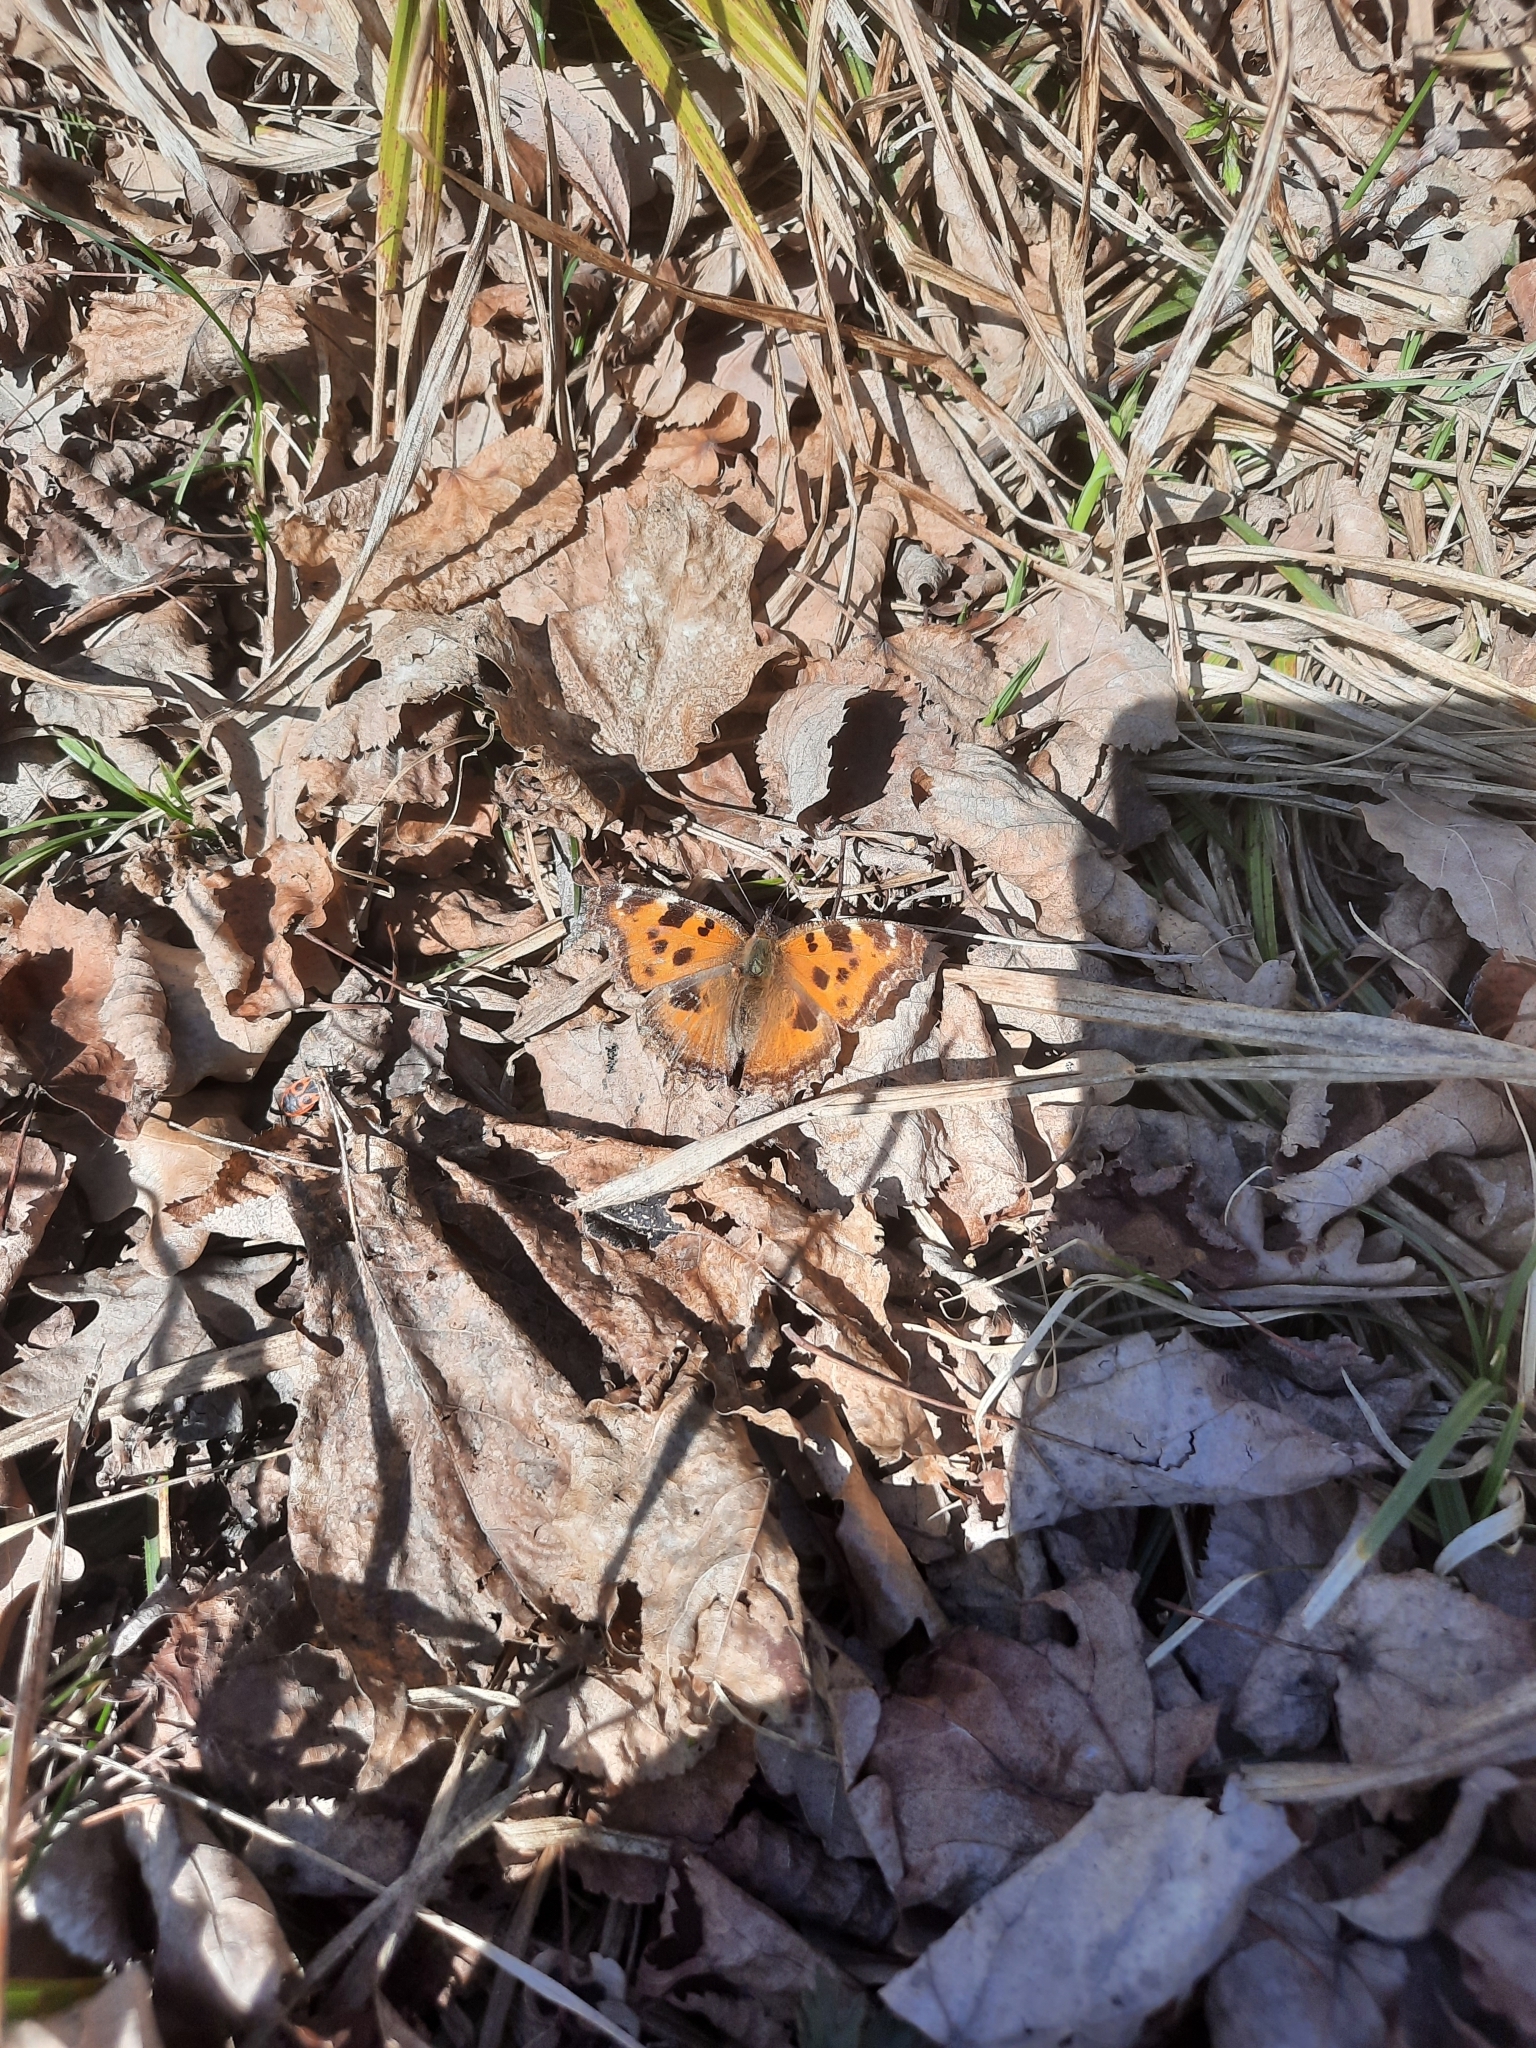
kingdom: Animalia
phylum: Arthropoda
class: Insecta
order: Lepidoptera
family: Nymphalidae
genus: Nymphalis
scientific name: Nymphalis xanthomelas
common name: Scarce tortoiseshell
